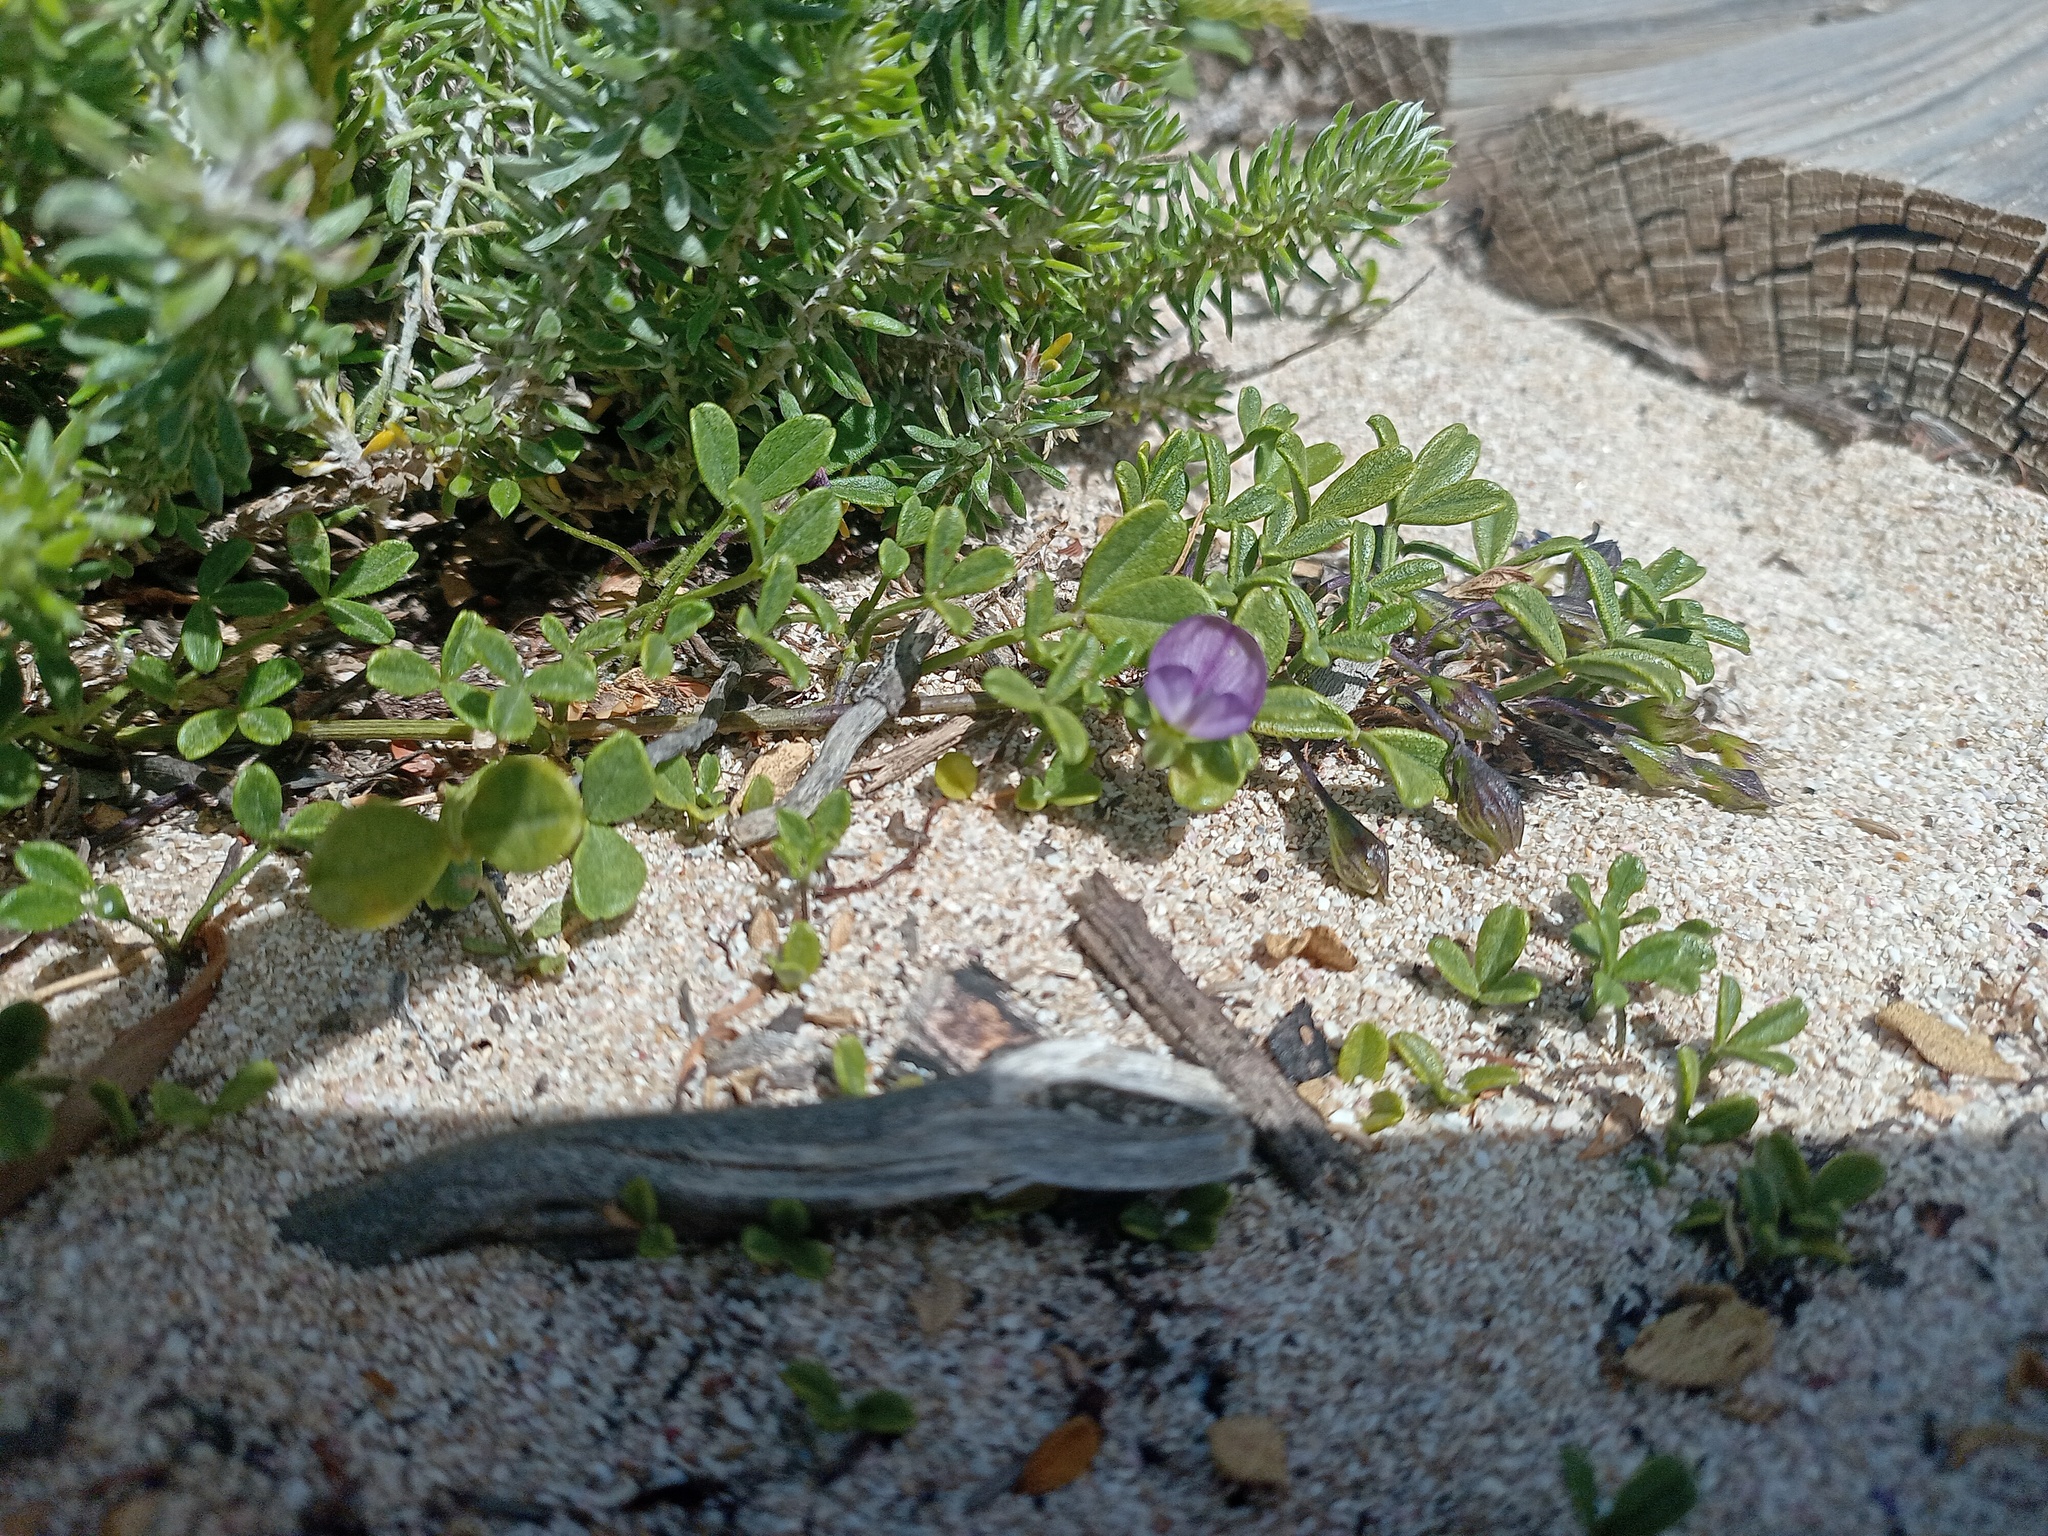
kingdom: Plantae
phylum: Tracheophyta
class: Magnoliopsida
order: Fabales
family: Fabaceae
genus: Psoralea
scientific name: Psoralea repens
